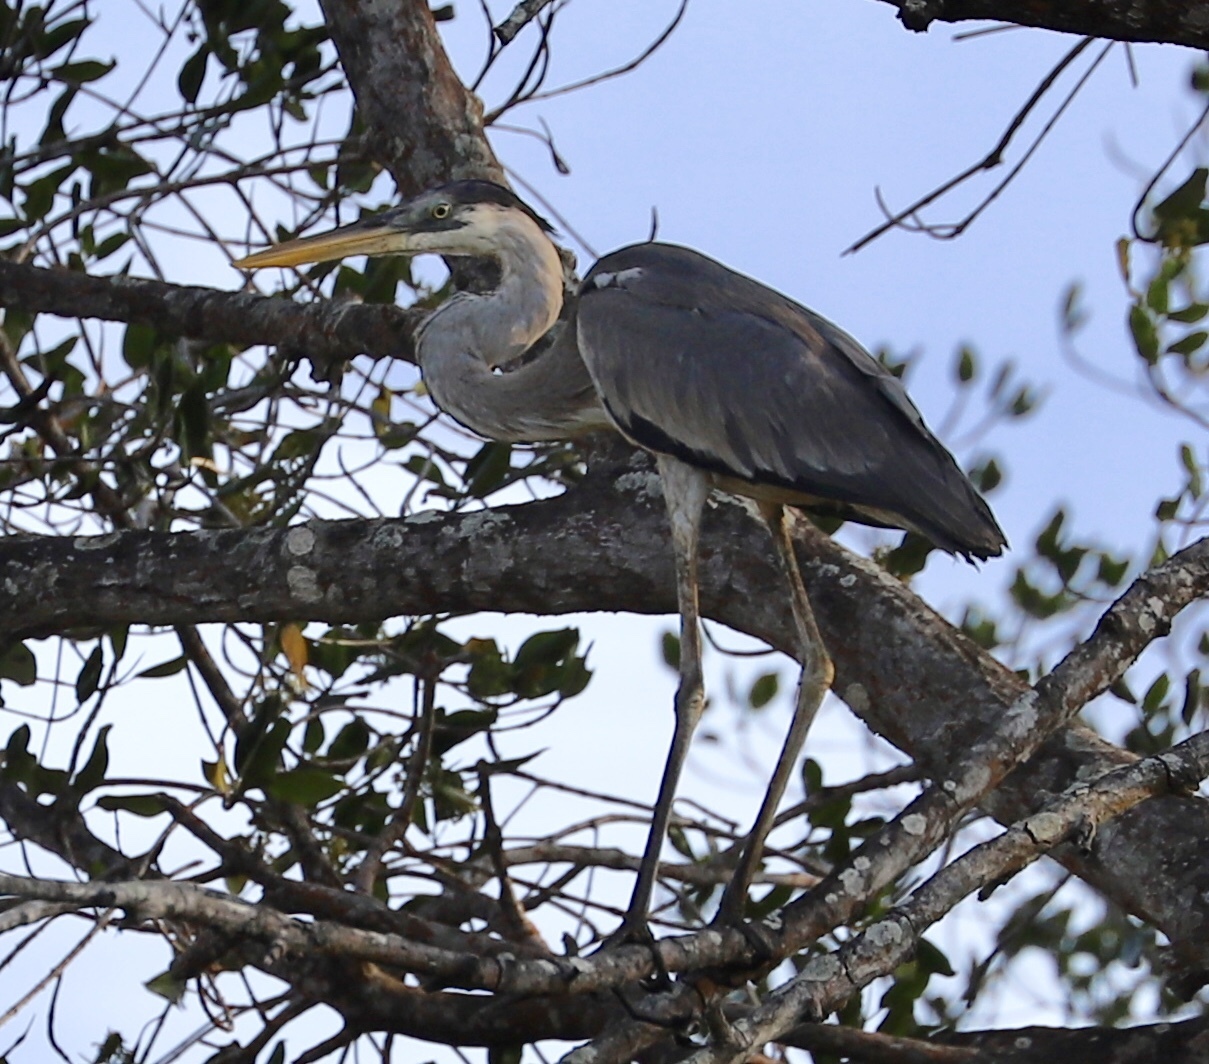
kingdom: Animalia
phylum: Chordata
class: Aves
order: Pelecaniformes
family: Ardeidae
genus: Ardea
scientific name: Ardea cocoi
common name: Cocoi heron
